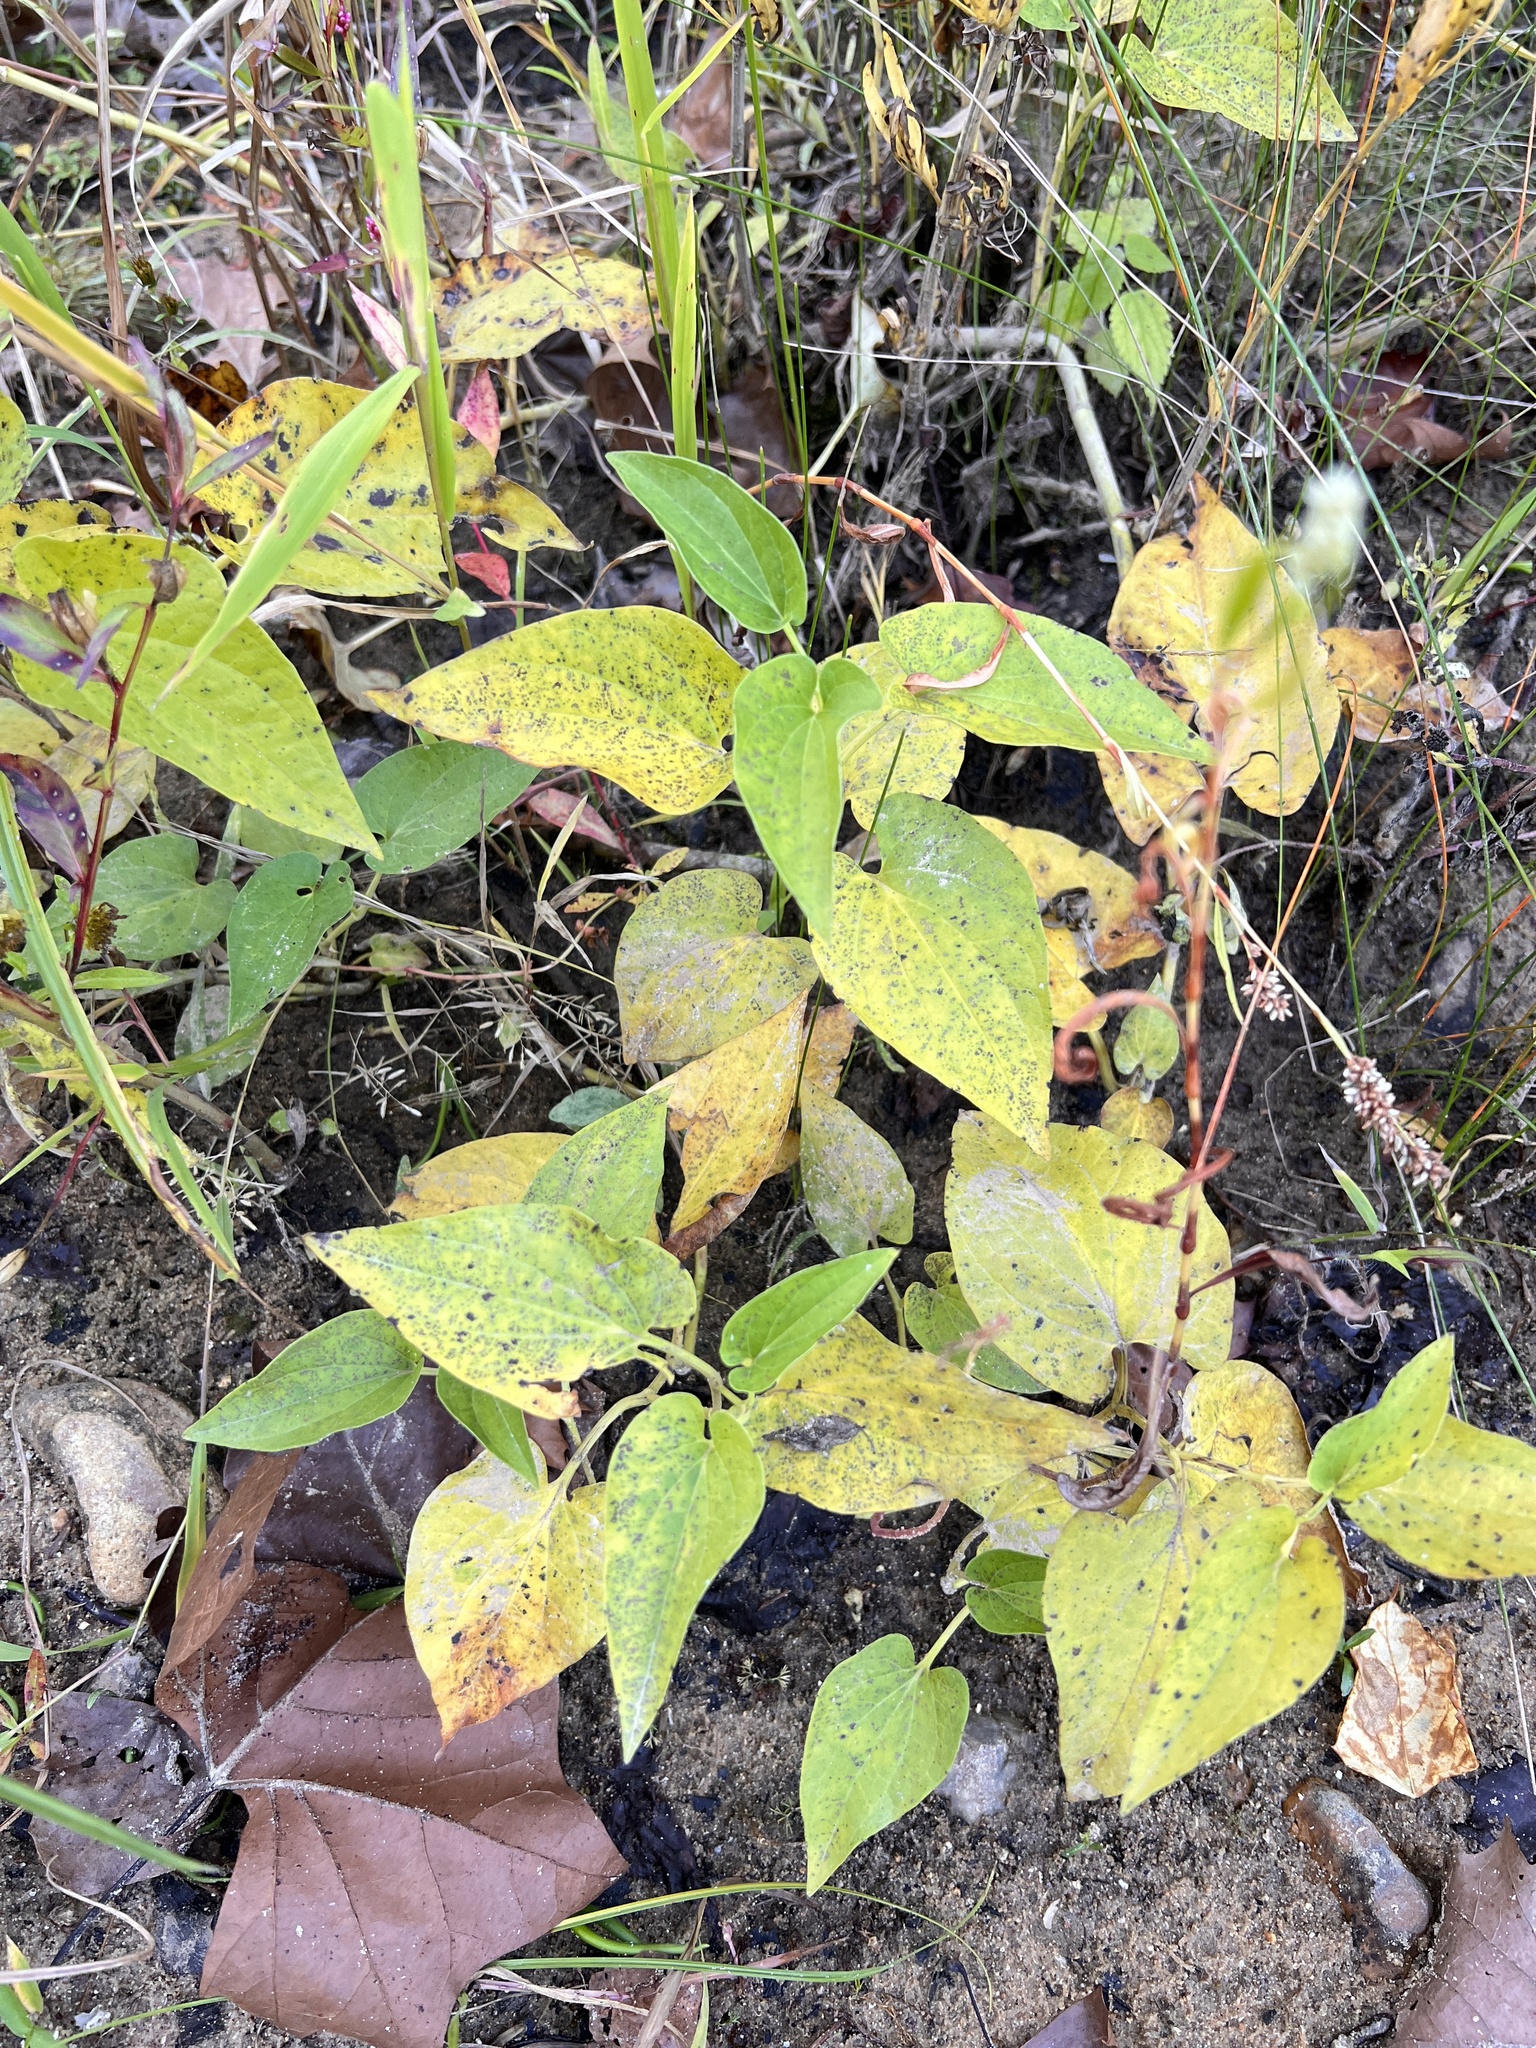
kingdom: Plantae
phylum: Tracheophyta
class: Magnoliopsida
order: Piperales
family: Saururaceae
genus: Saururus
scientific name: Saururus cernuus
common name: Lizard's-tail
